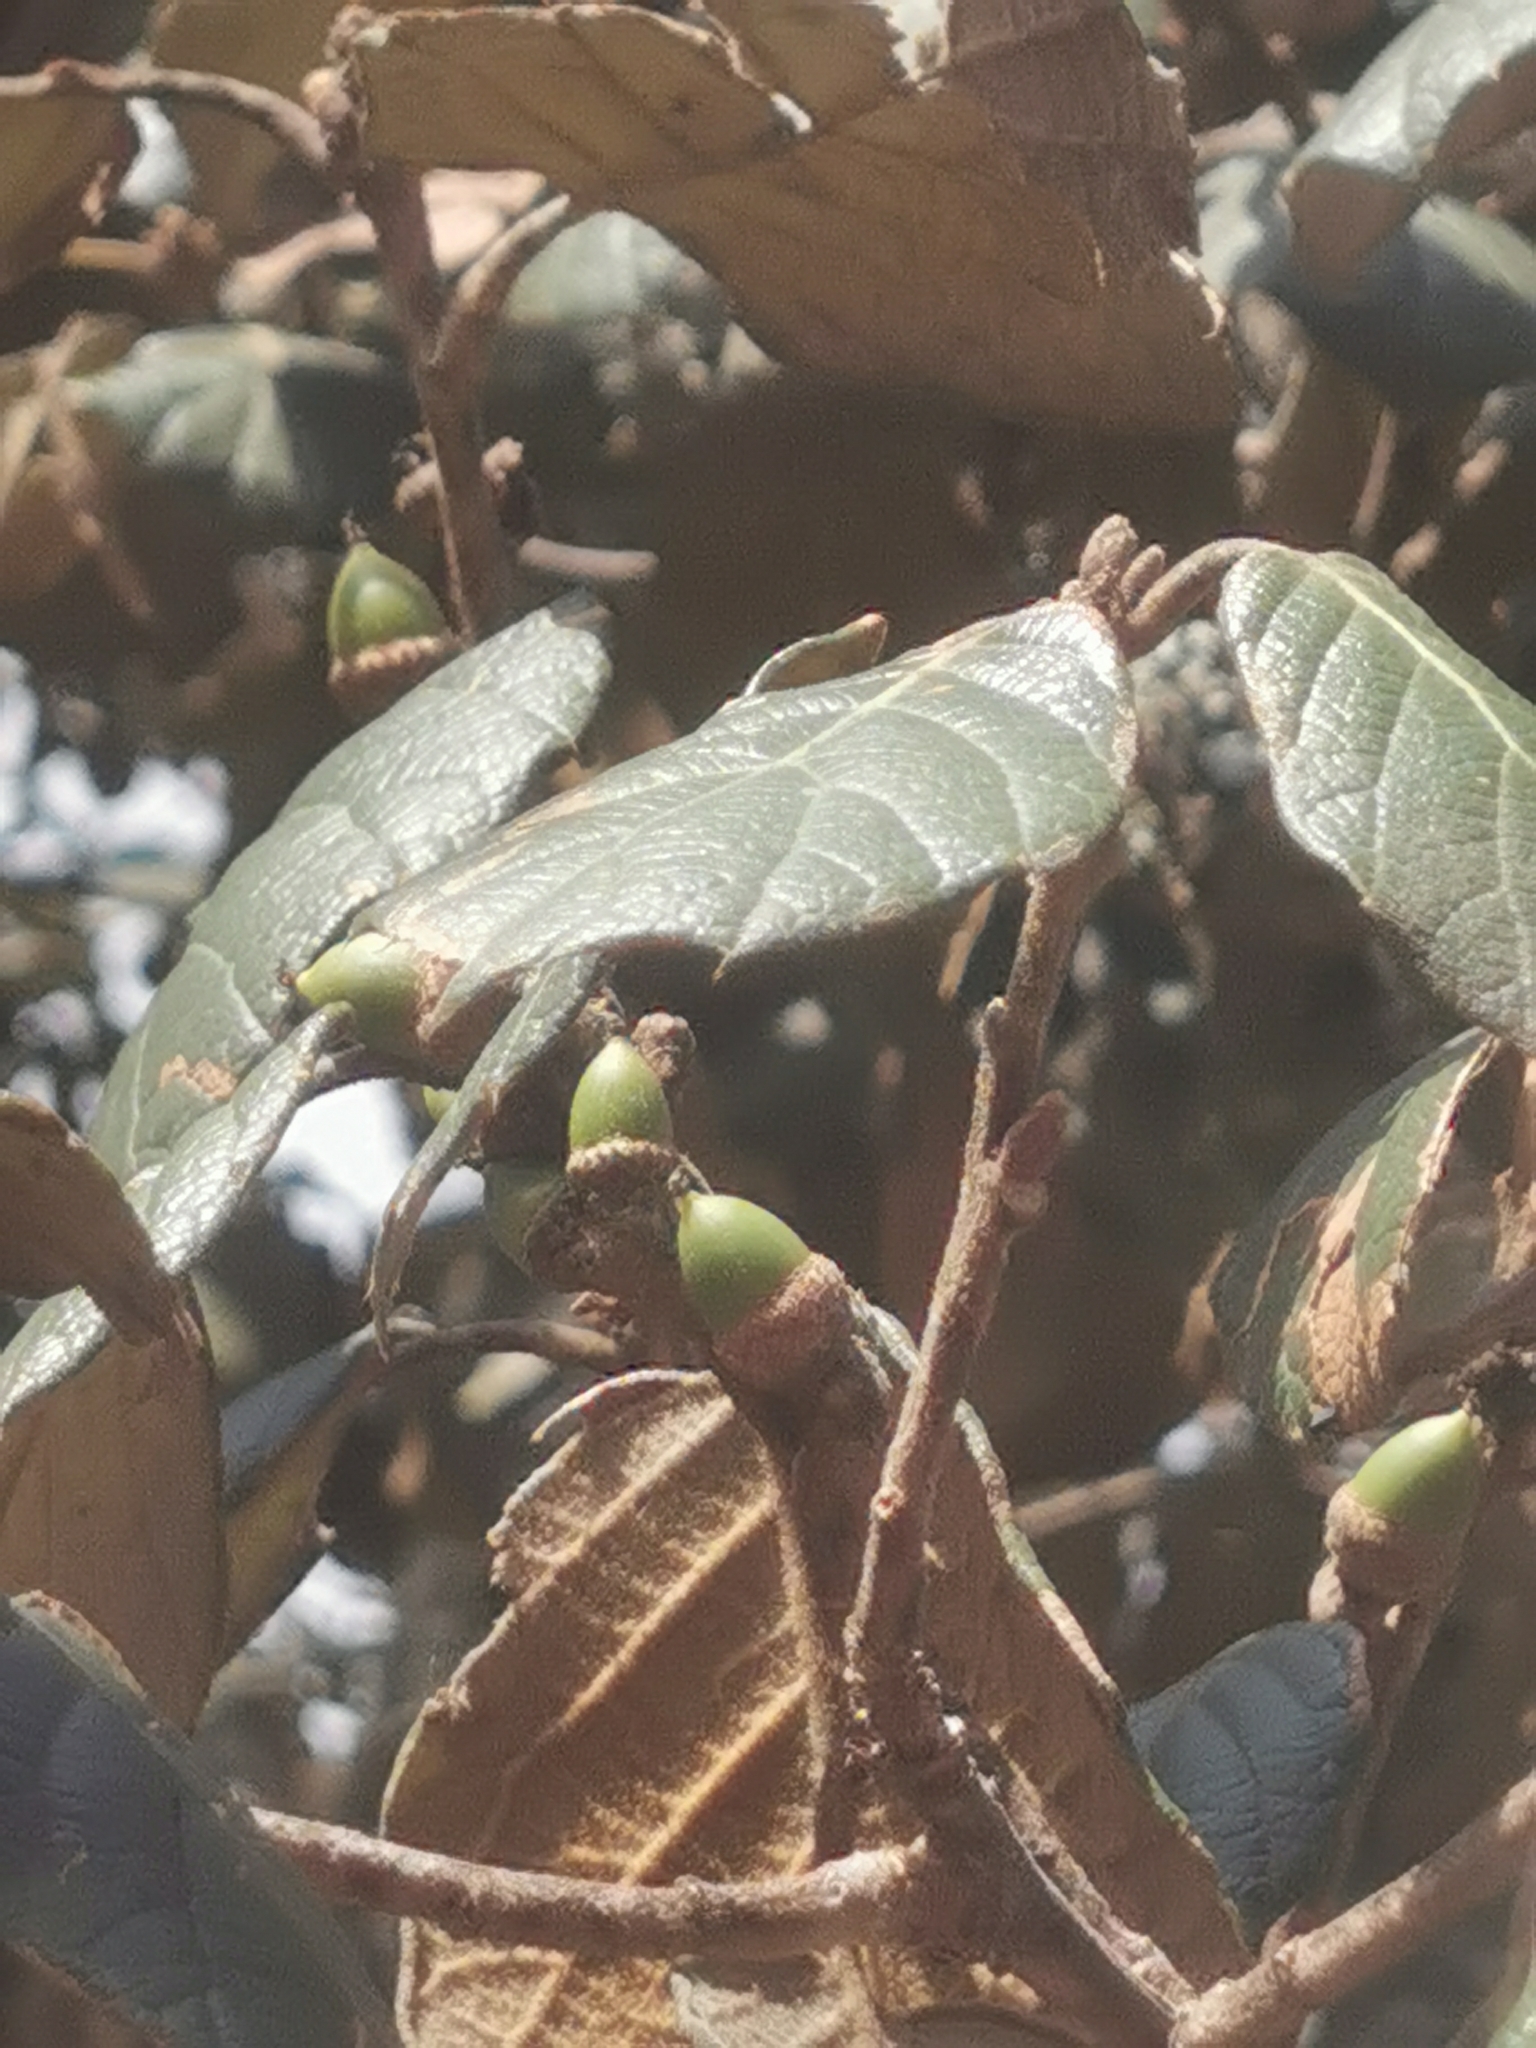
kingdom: Plantae
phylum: Tracheophyta
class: Magnoliopsida
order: Fagales
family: Fagaceae
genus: Quercus
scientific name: Quercus crassifolia
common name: Leather leaf mexican oak
